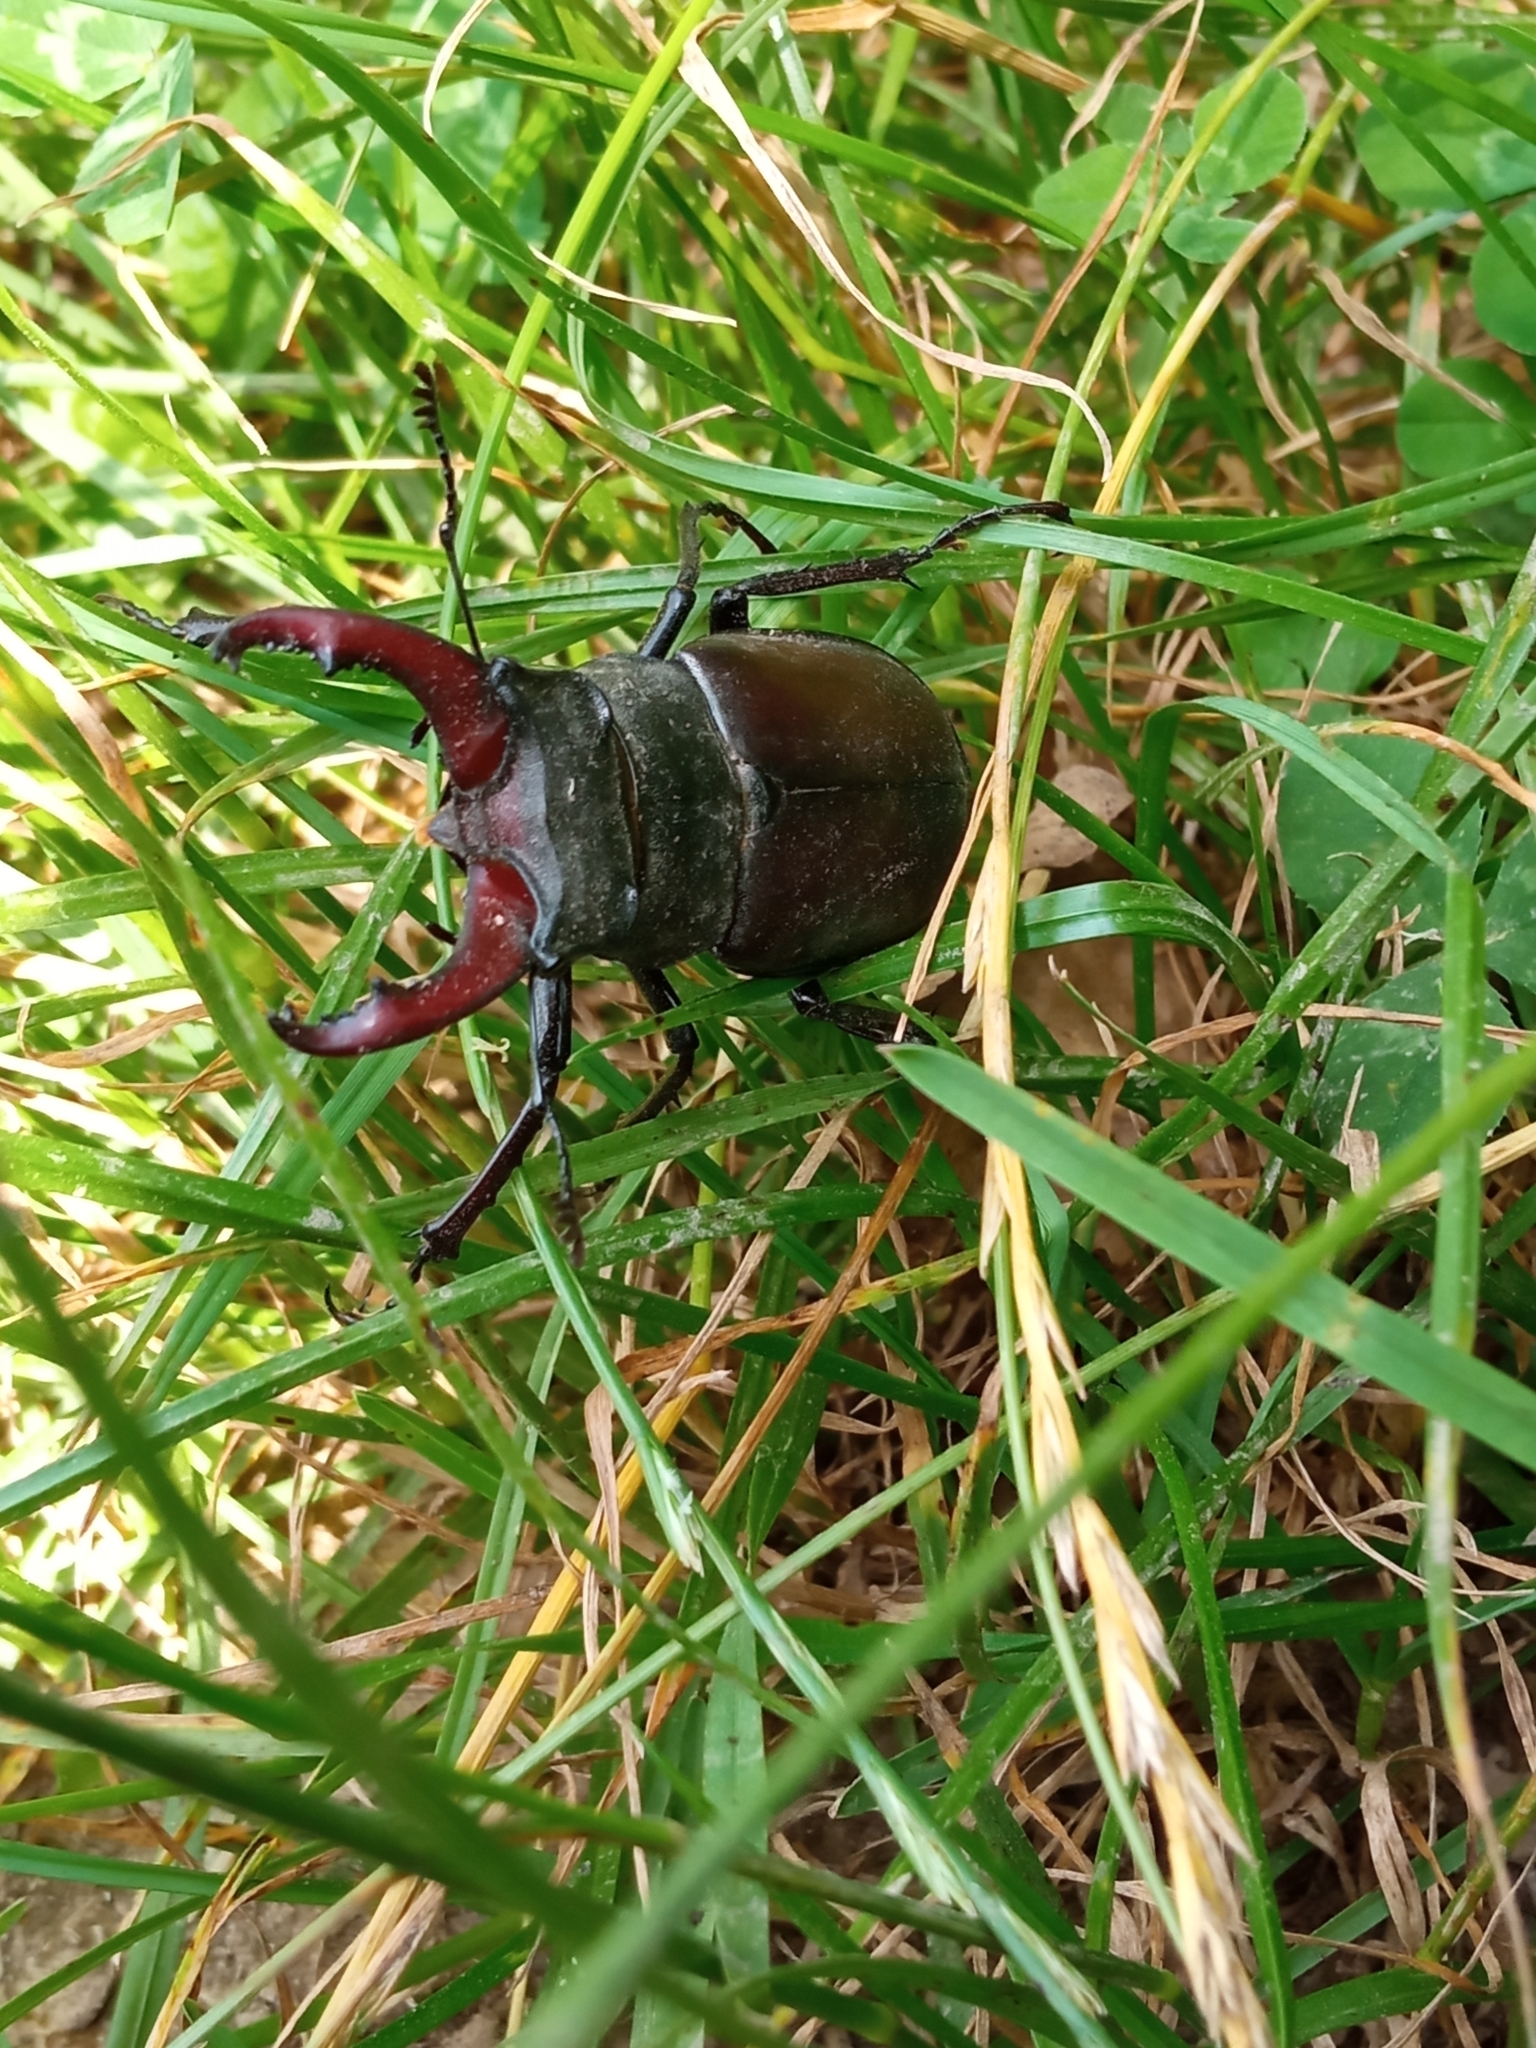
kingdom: Animalia
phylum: Arthropoda
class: Insecta
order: Coleoptera
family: Lucanidae
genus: Lucanus
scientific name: Lucanus cervus
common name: Stag beetle
